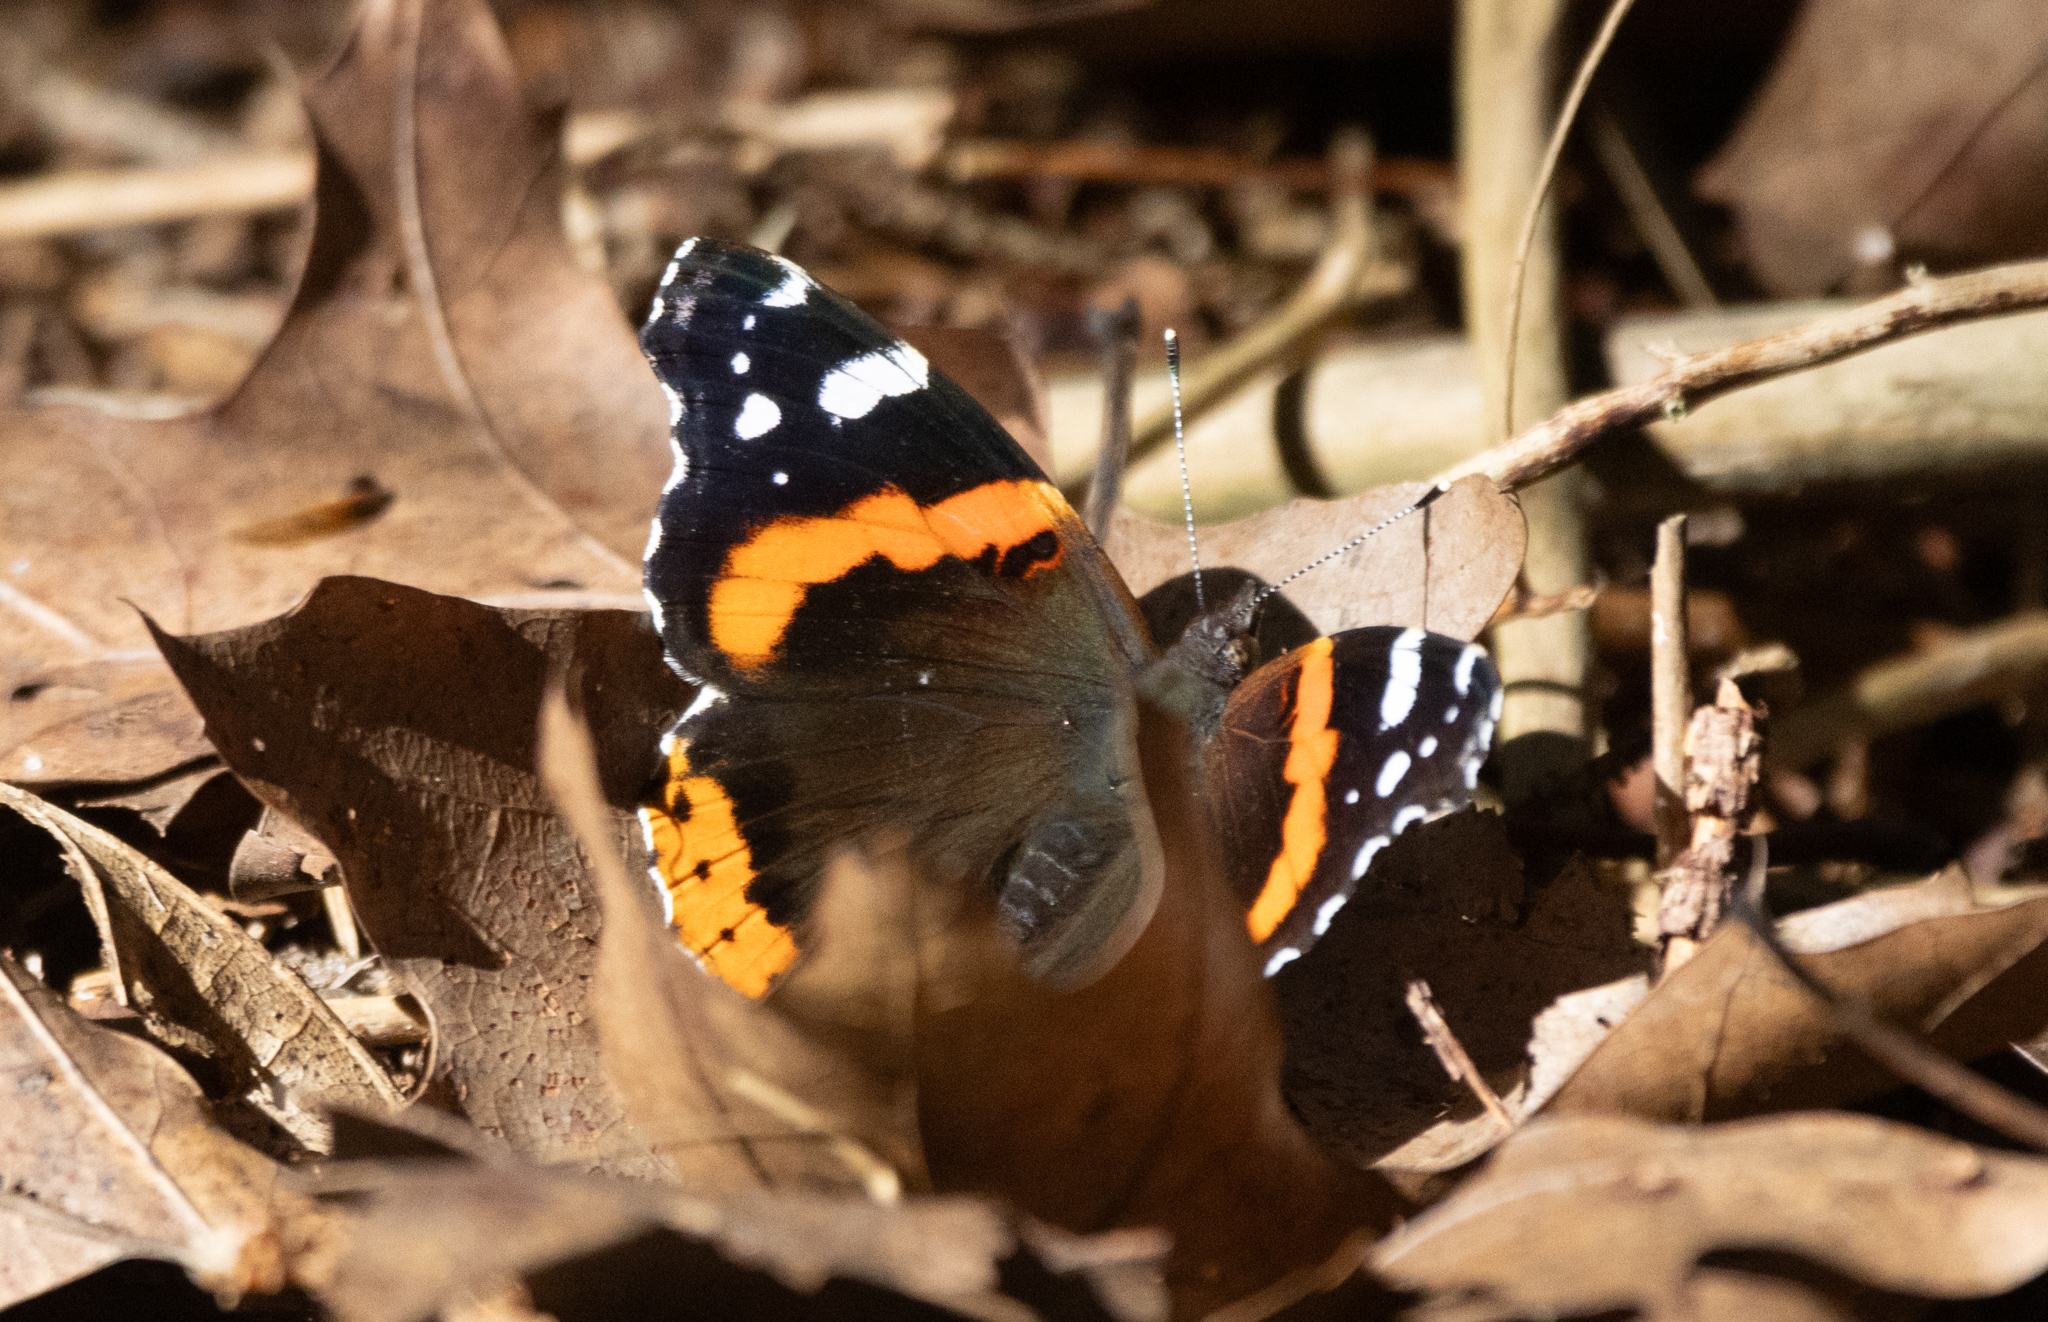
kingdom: Animalia
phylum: Arthropoda
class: Insecta
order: Lepidoptera
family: Nymphalidae
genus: Vanessa
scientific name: Vanessa atalanta
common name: Red admiral
